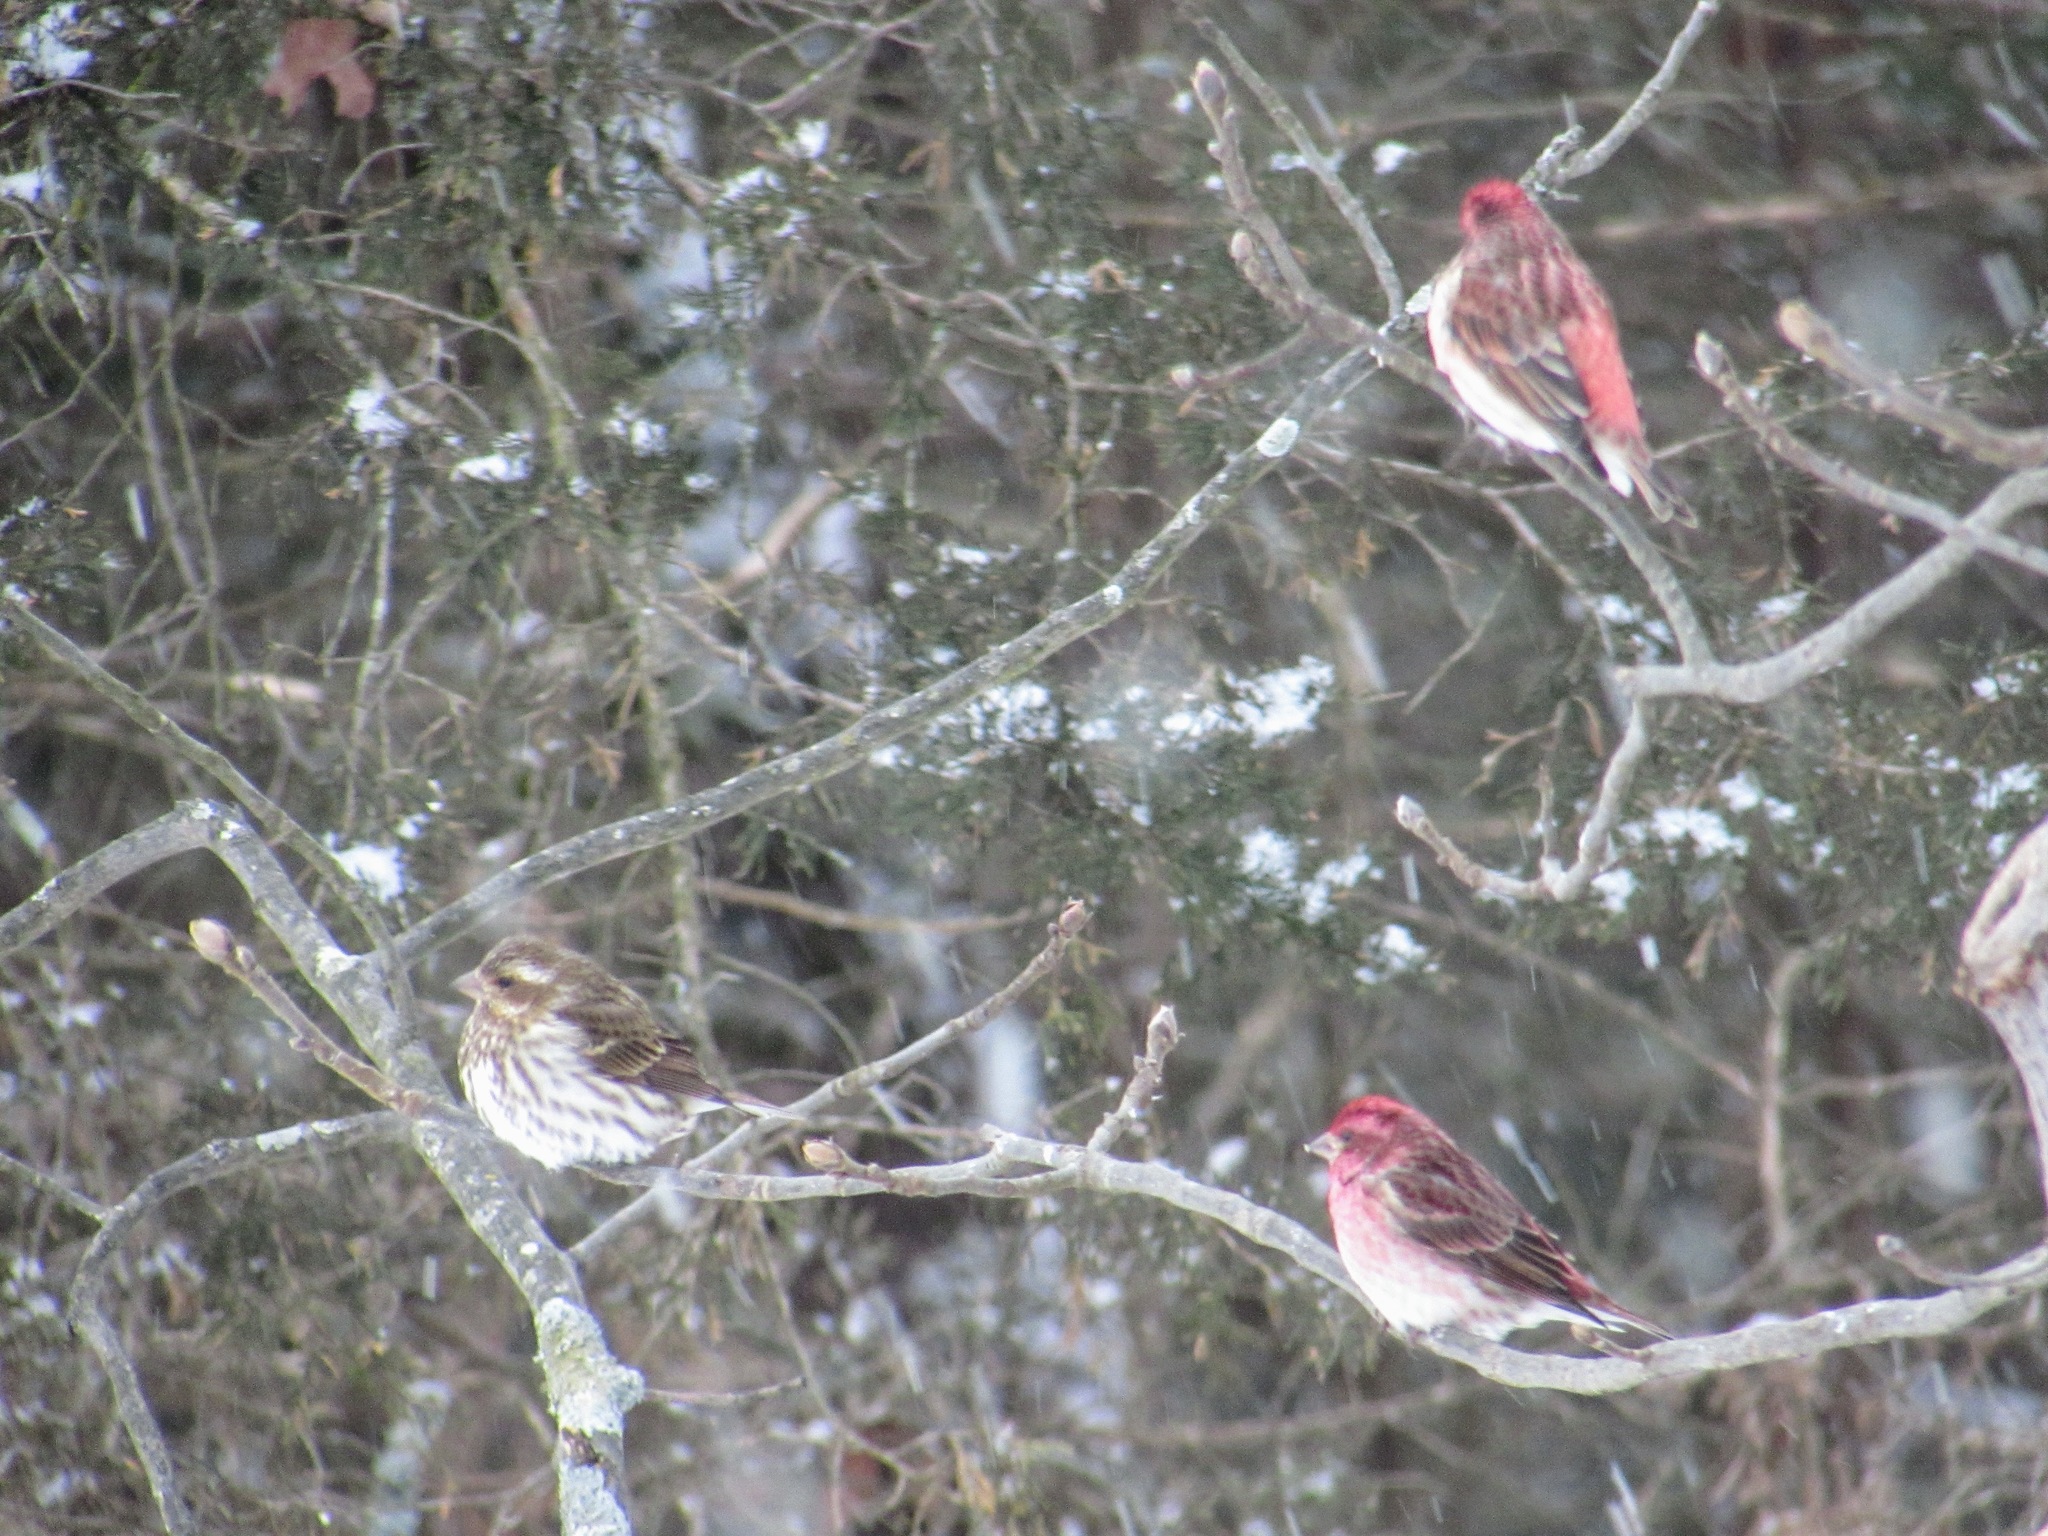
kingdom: Animalia
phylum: Chordata
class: Aves
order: Passeriformes
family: Fringillidae
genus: Haemorhous
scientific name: Haemorhous purpureus
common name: Purple finch
